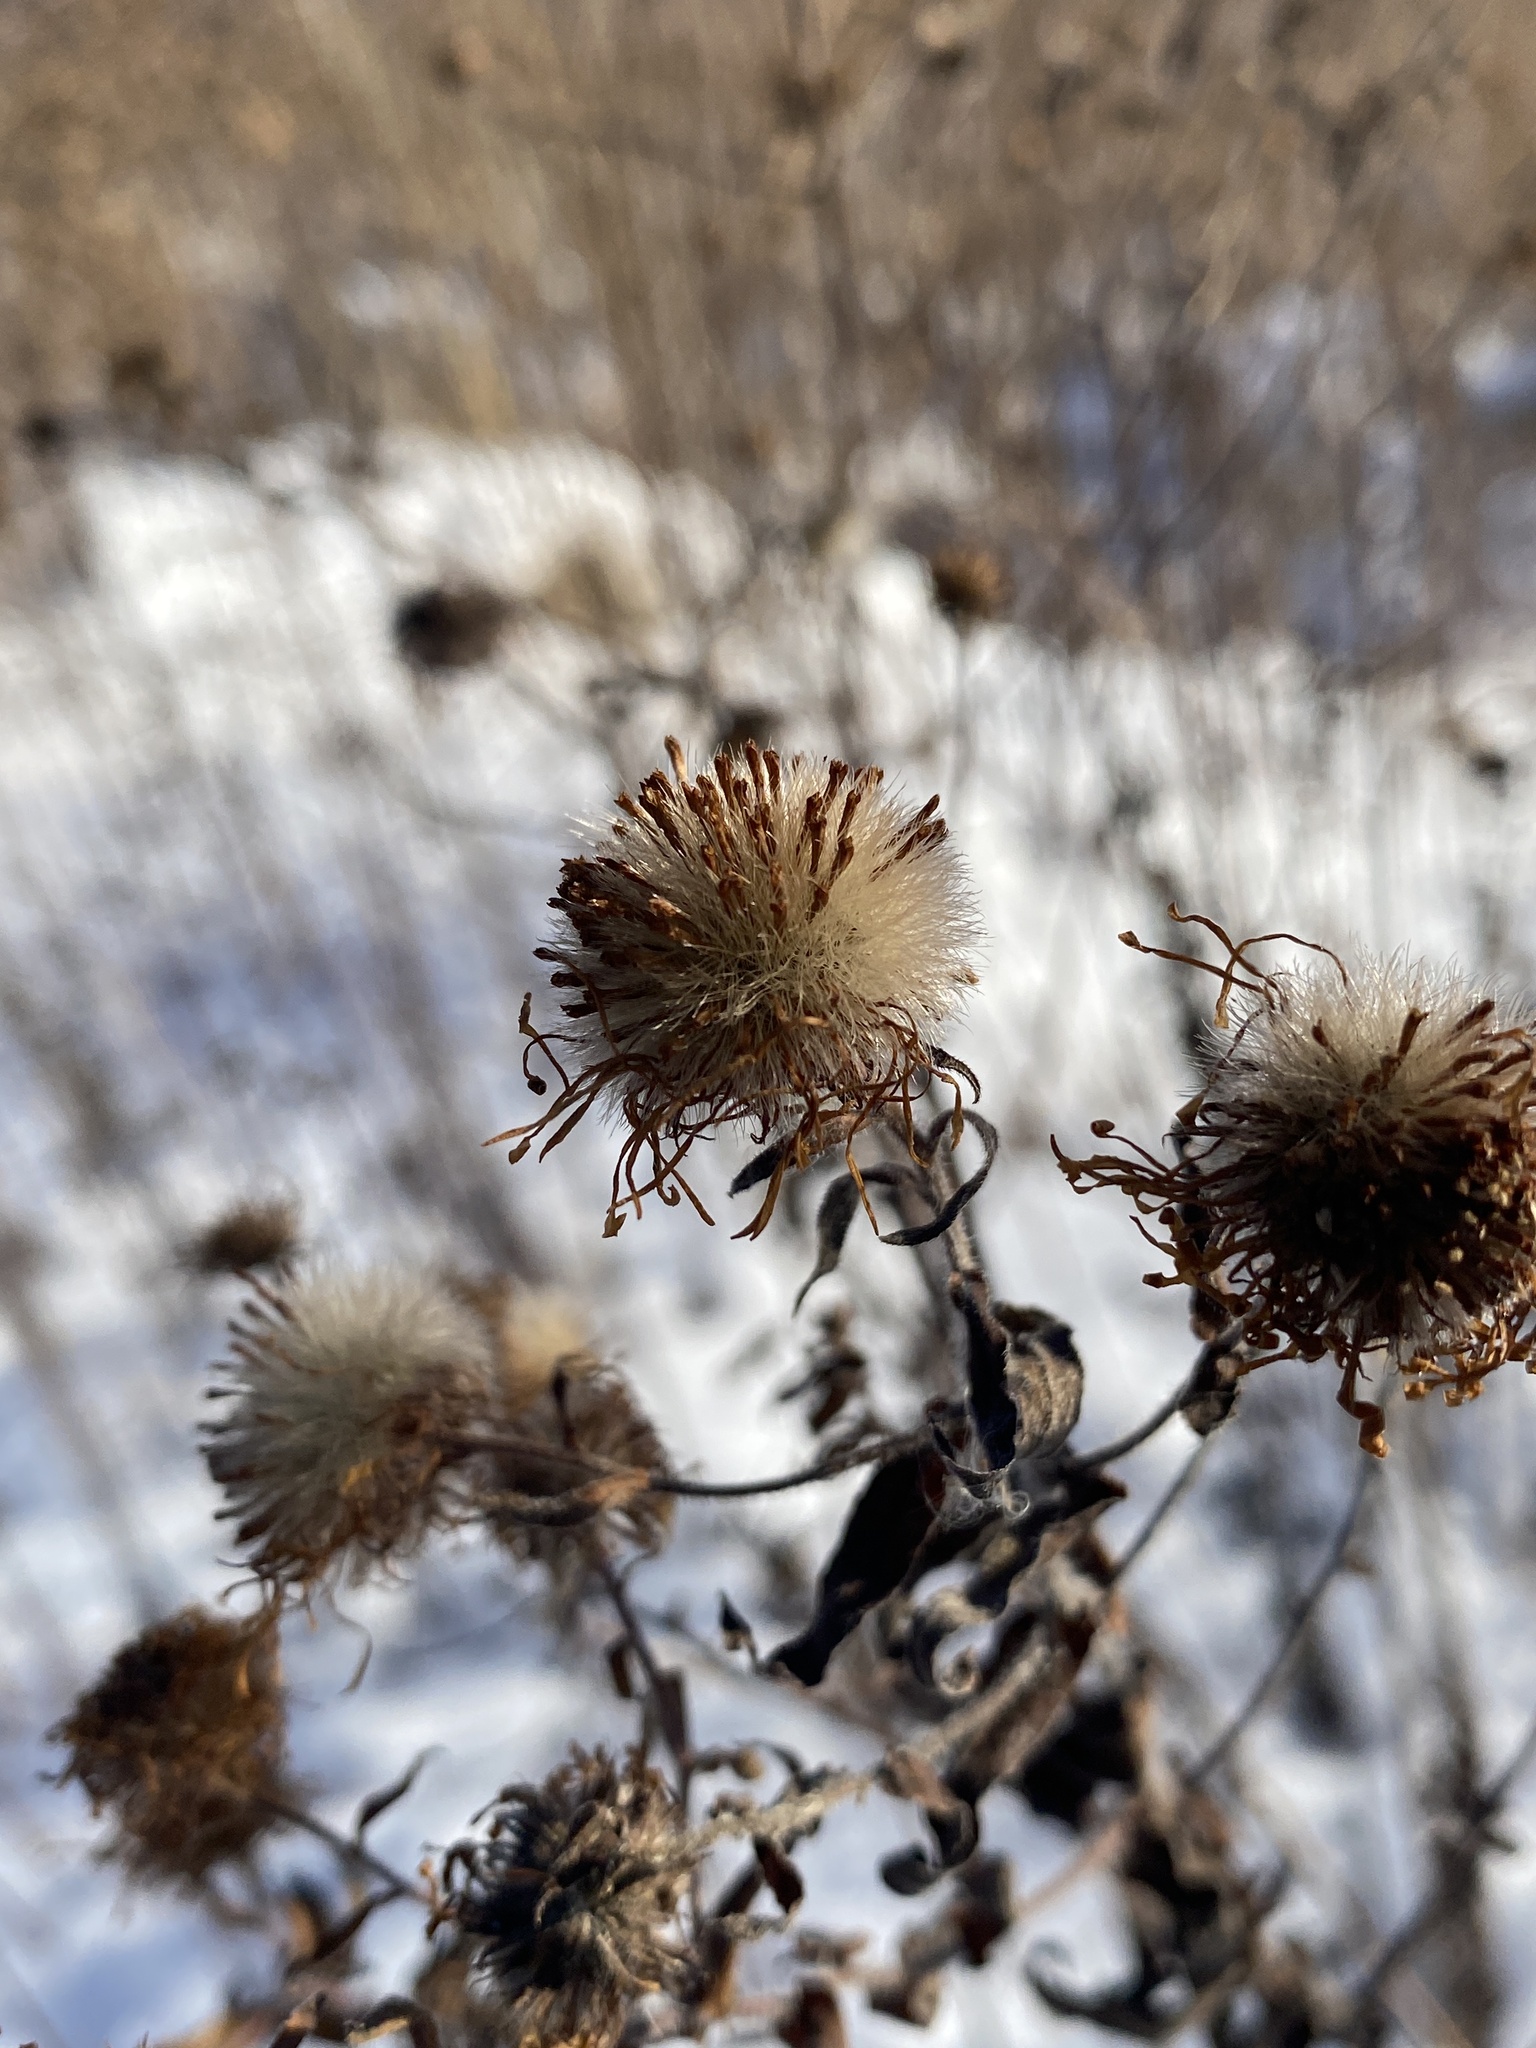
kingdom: Plantae
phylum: Tracheophyta
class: Magnoliopsida
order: Asterales
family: Asteraceae
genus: Symphyotrichum
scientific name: Symphyotrichum novae-angliae
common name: Michaelmas daisy
